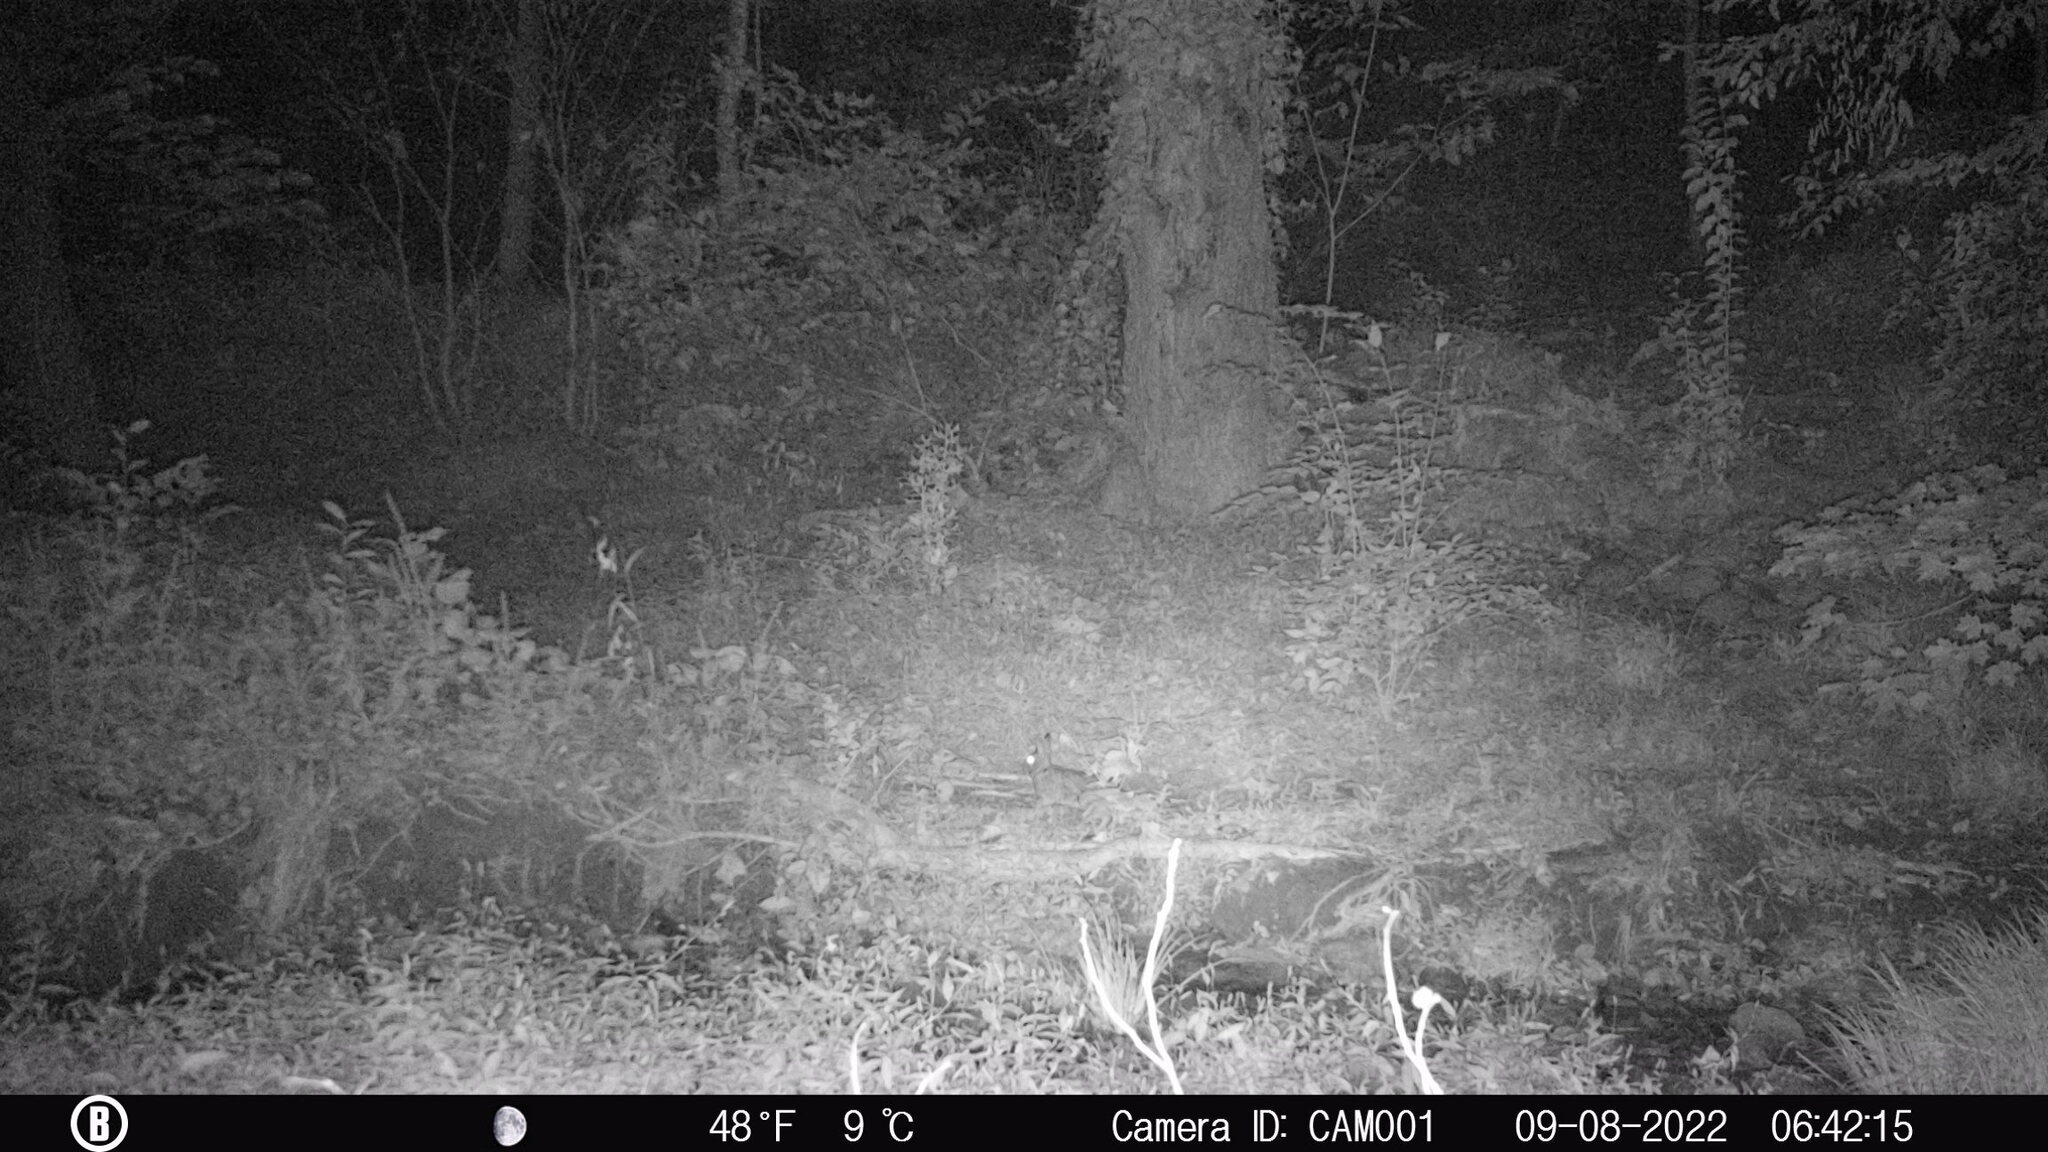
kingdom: Animalia
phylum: Chordata
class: Mammalia
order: Lagomorpha
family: Leporidae
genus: Sylvilagus
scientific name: Sylvilagus floridanus
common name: Eastern cottontail
